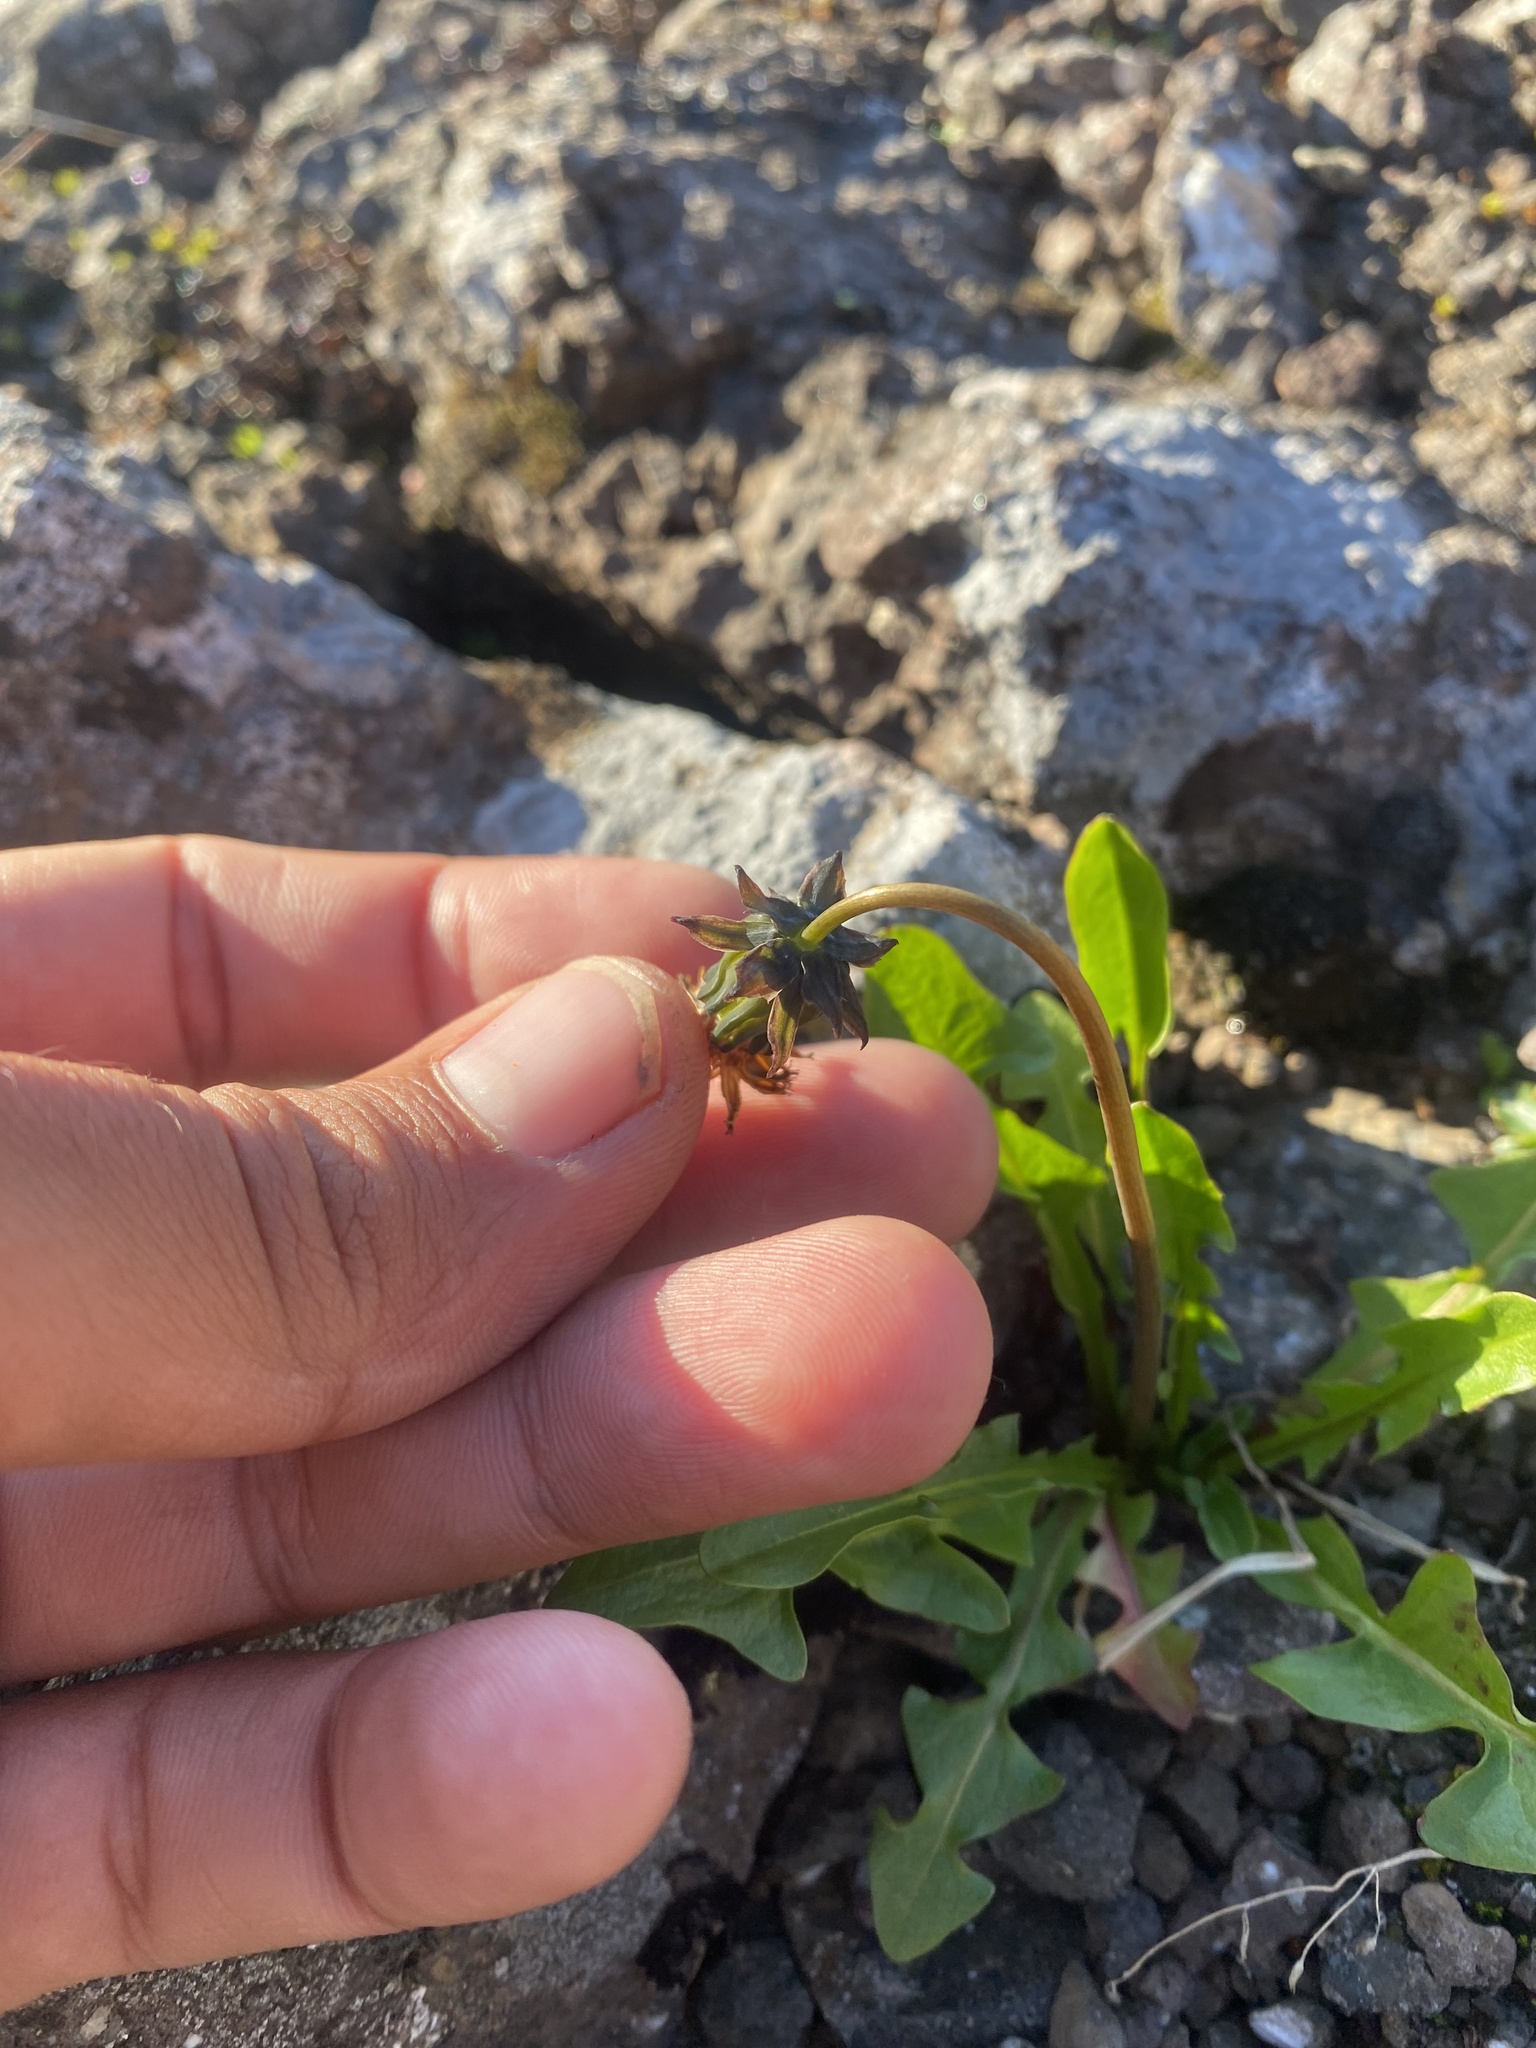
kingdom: Plantae
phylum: Tracheophyta
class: Magnoliopsida
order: Asterales
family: Asteraceae
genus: Taraxacum
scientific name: Taraxacum glabrum
